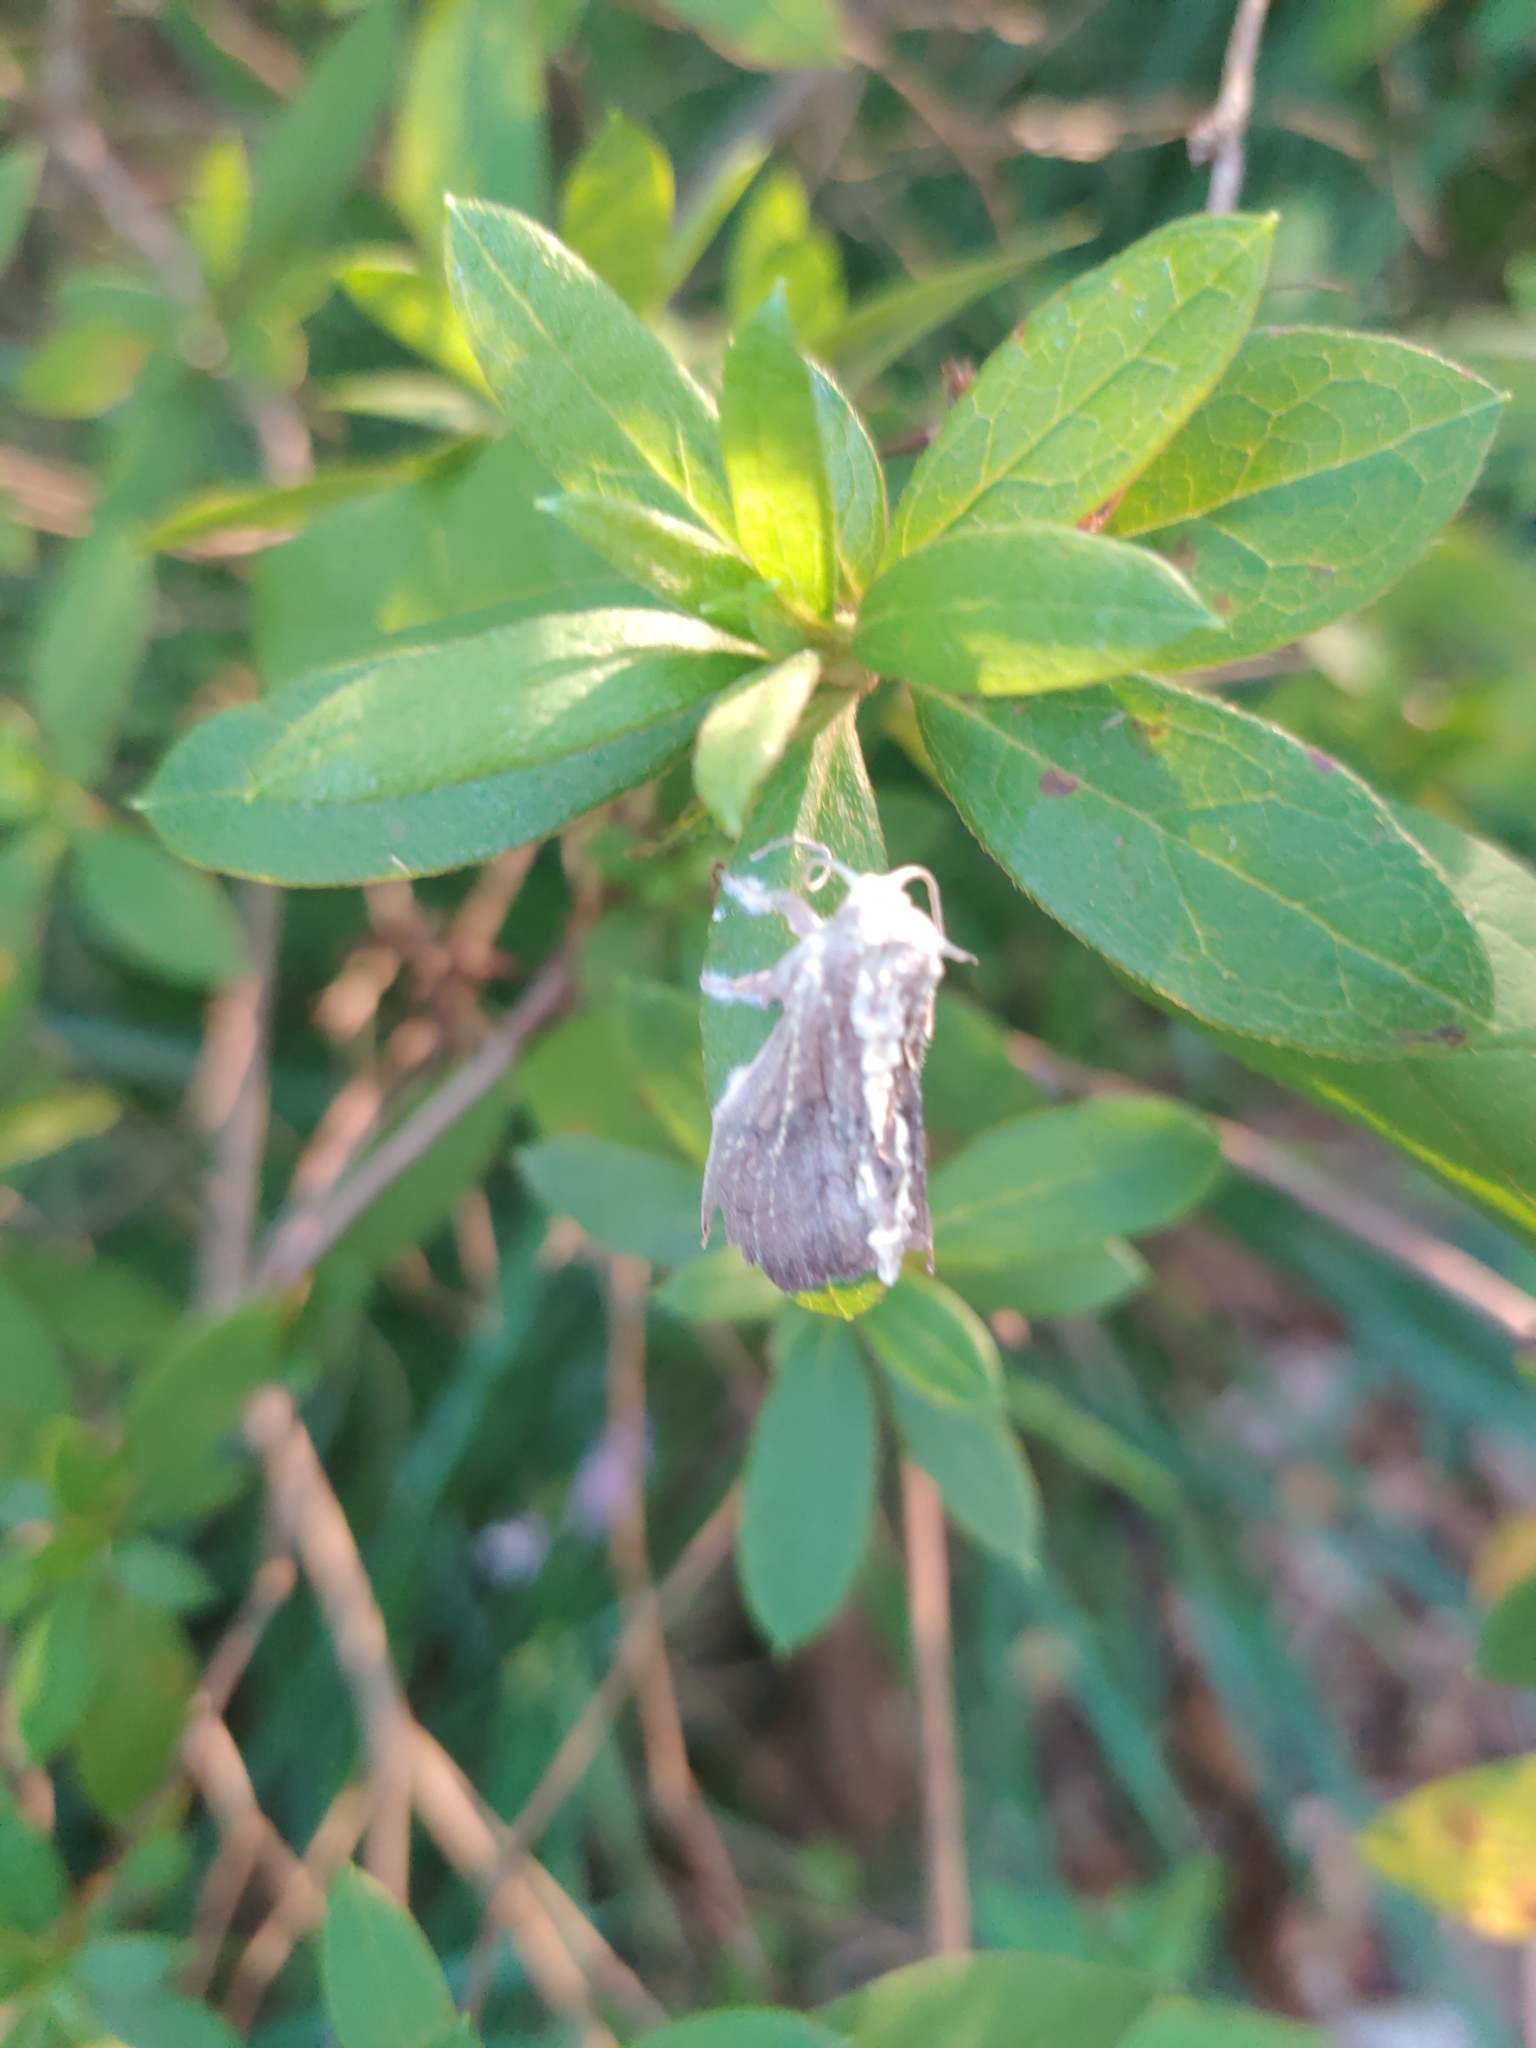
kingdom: Fungi
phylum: Ascomycota
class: Sordariomycetes
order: Hypocreales
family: Cordycipitaceae
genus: Akanthomyces
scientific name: Akanthomyces
